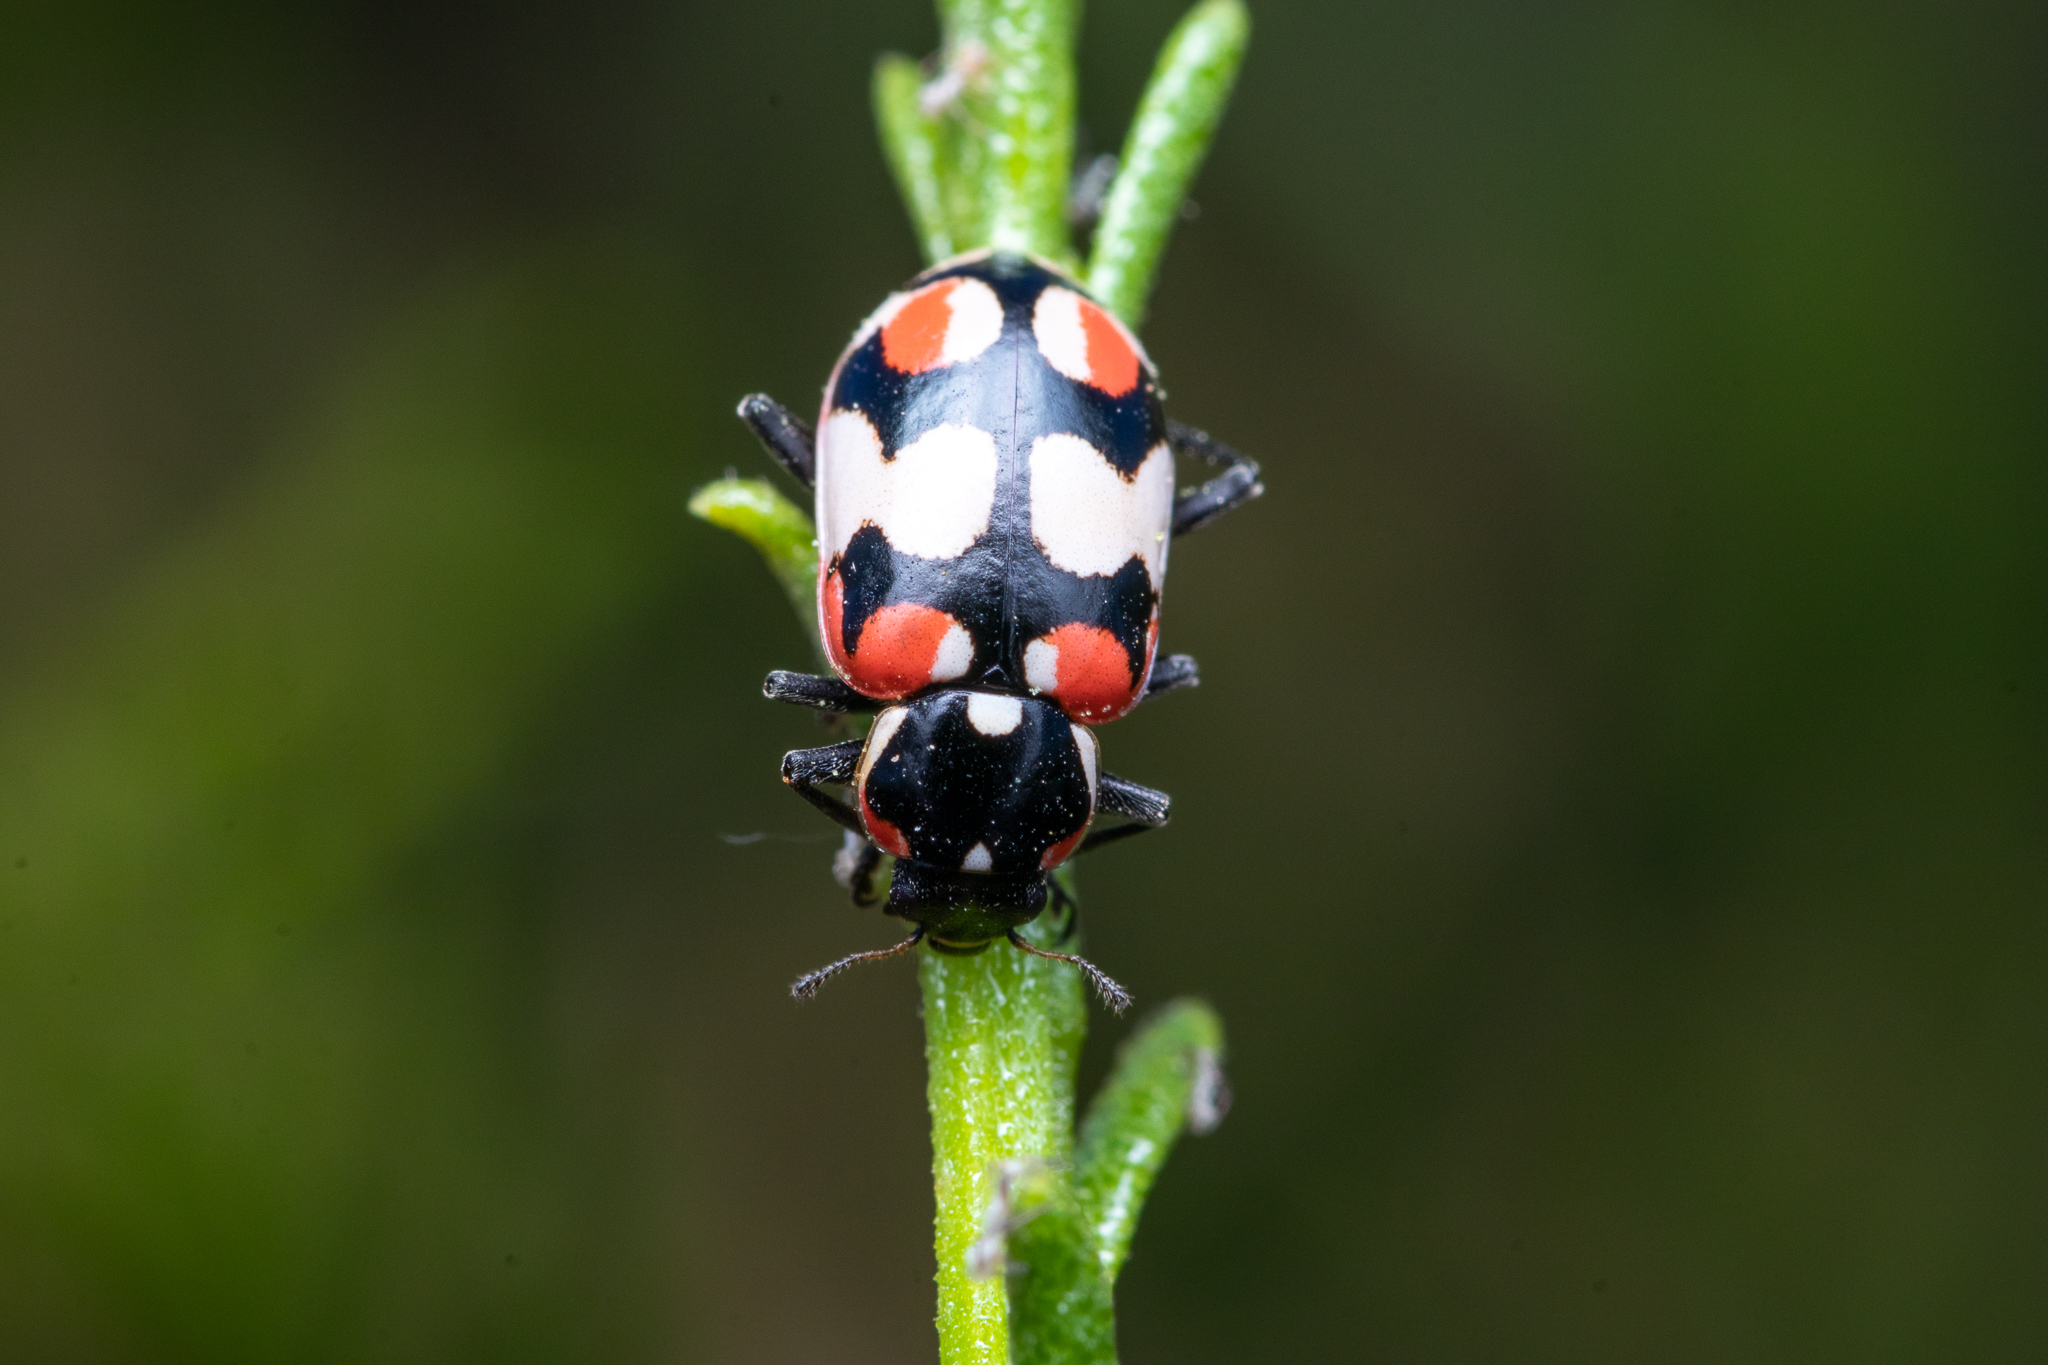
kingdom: Animalia
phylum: Arthropoda
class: Insecta
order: Coleoptera
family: Coccinellidae
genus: Eriopis
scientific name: Eriopis chilensis
